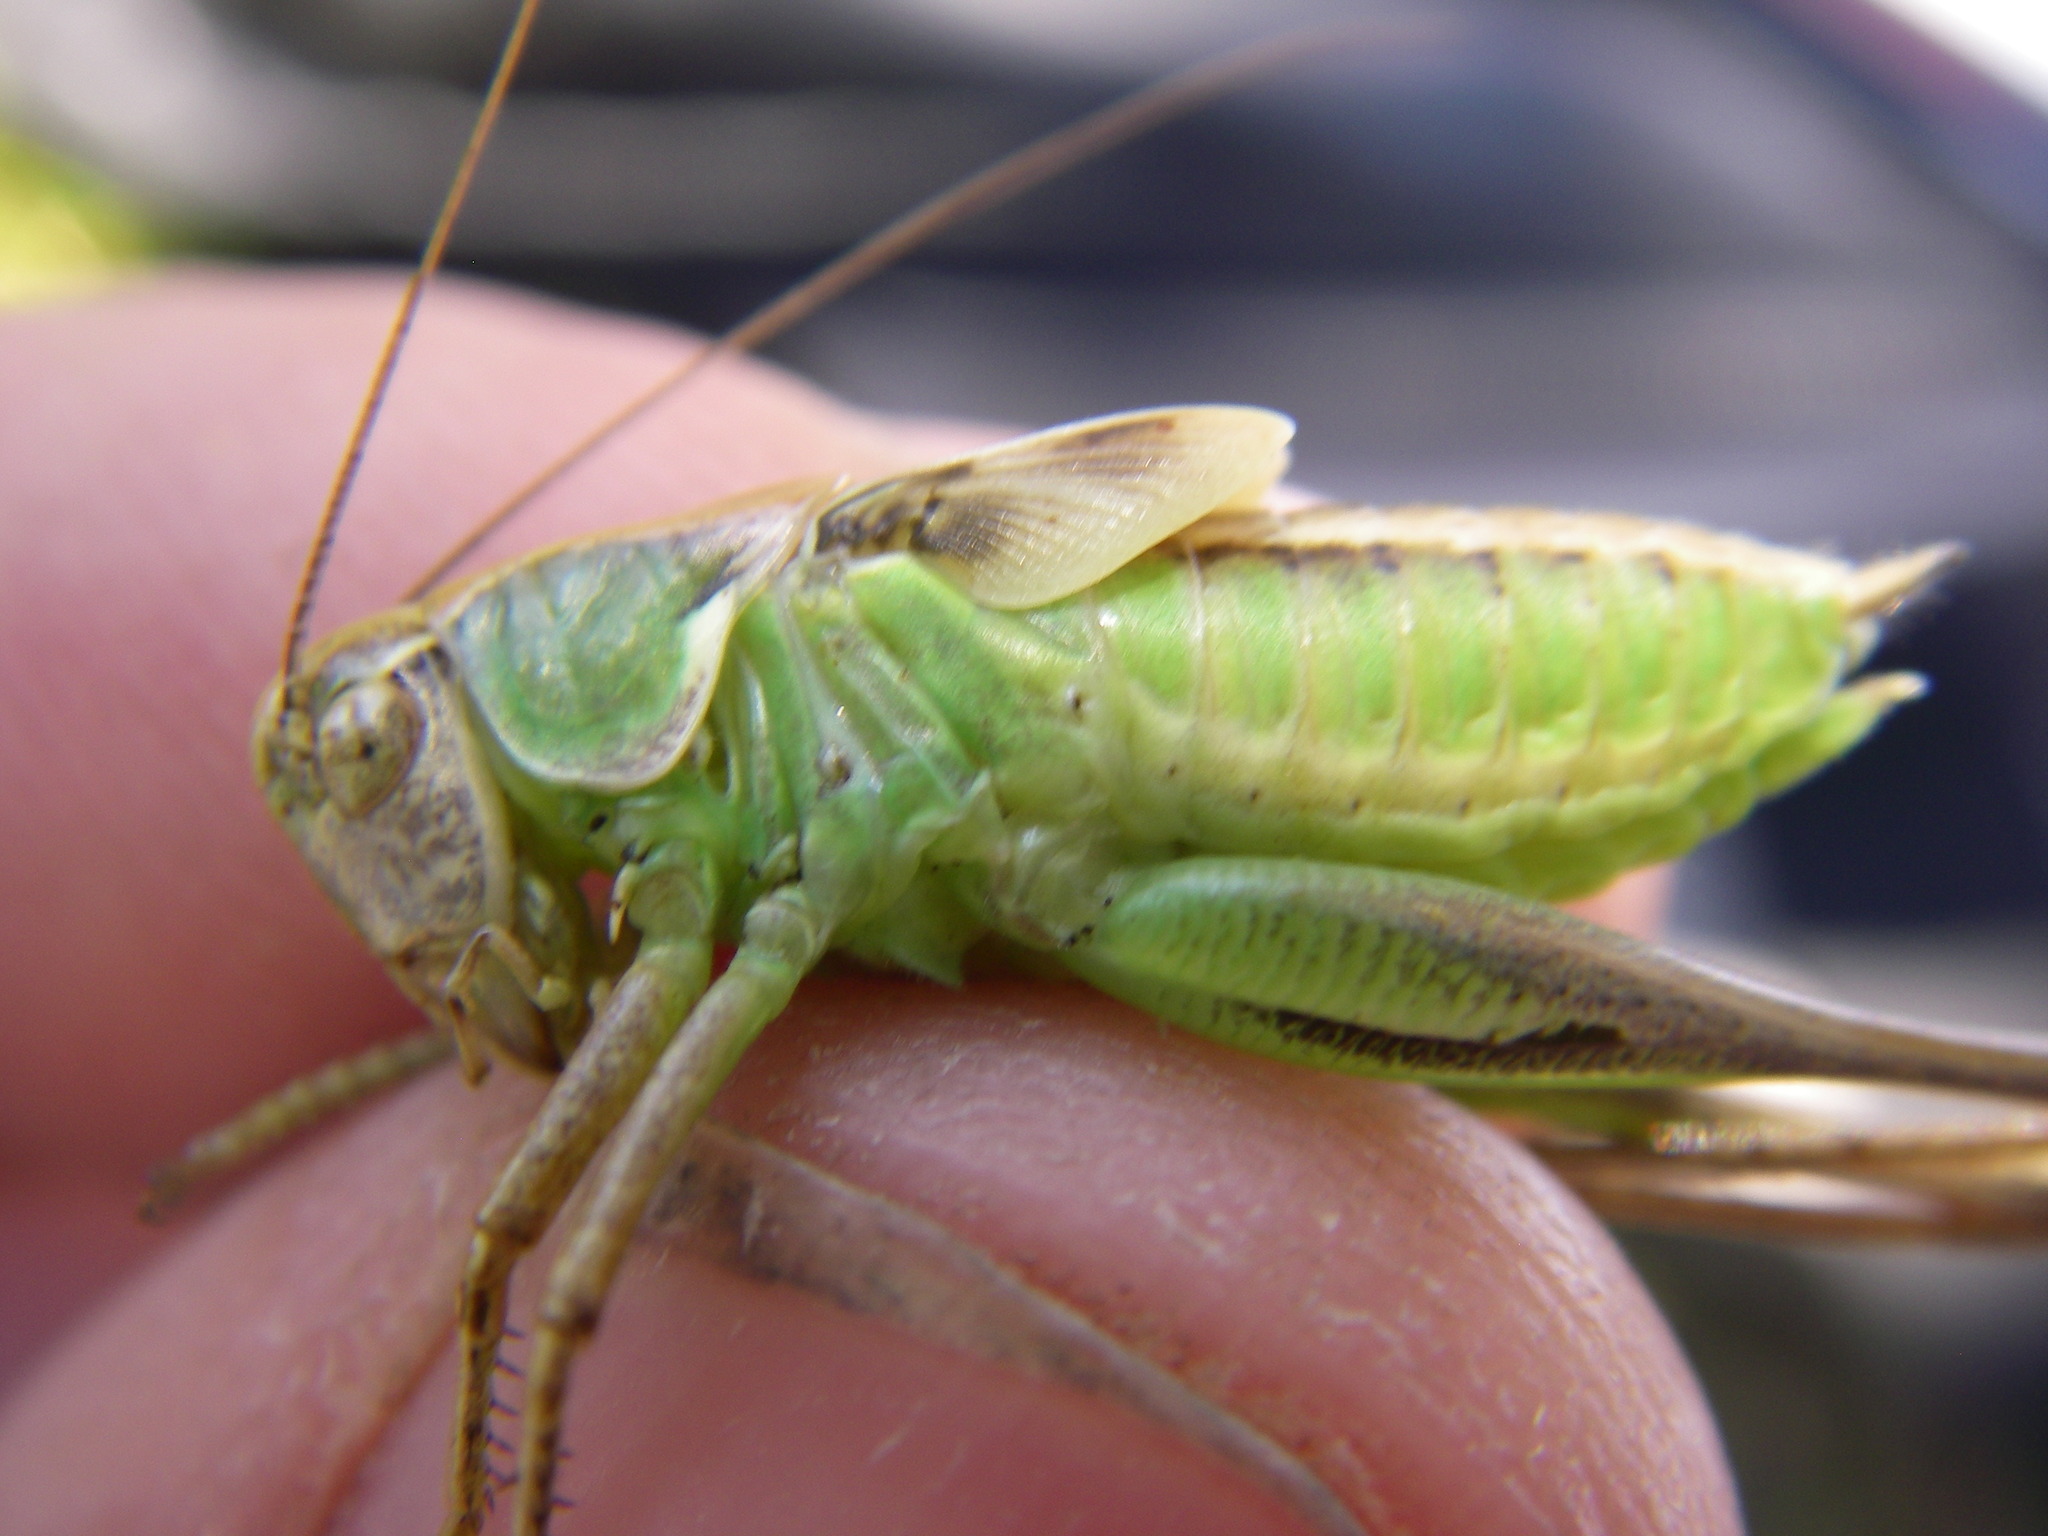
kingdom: Animalia
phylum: Arthropoda
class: Insecta
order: Orthoptera
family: Tettigoniidae
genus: Platycleis
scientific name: Platycleis albopunctata
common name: Grey bush-cricket
